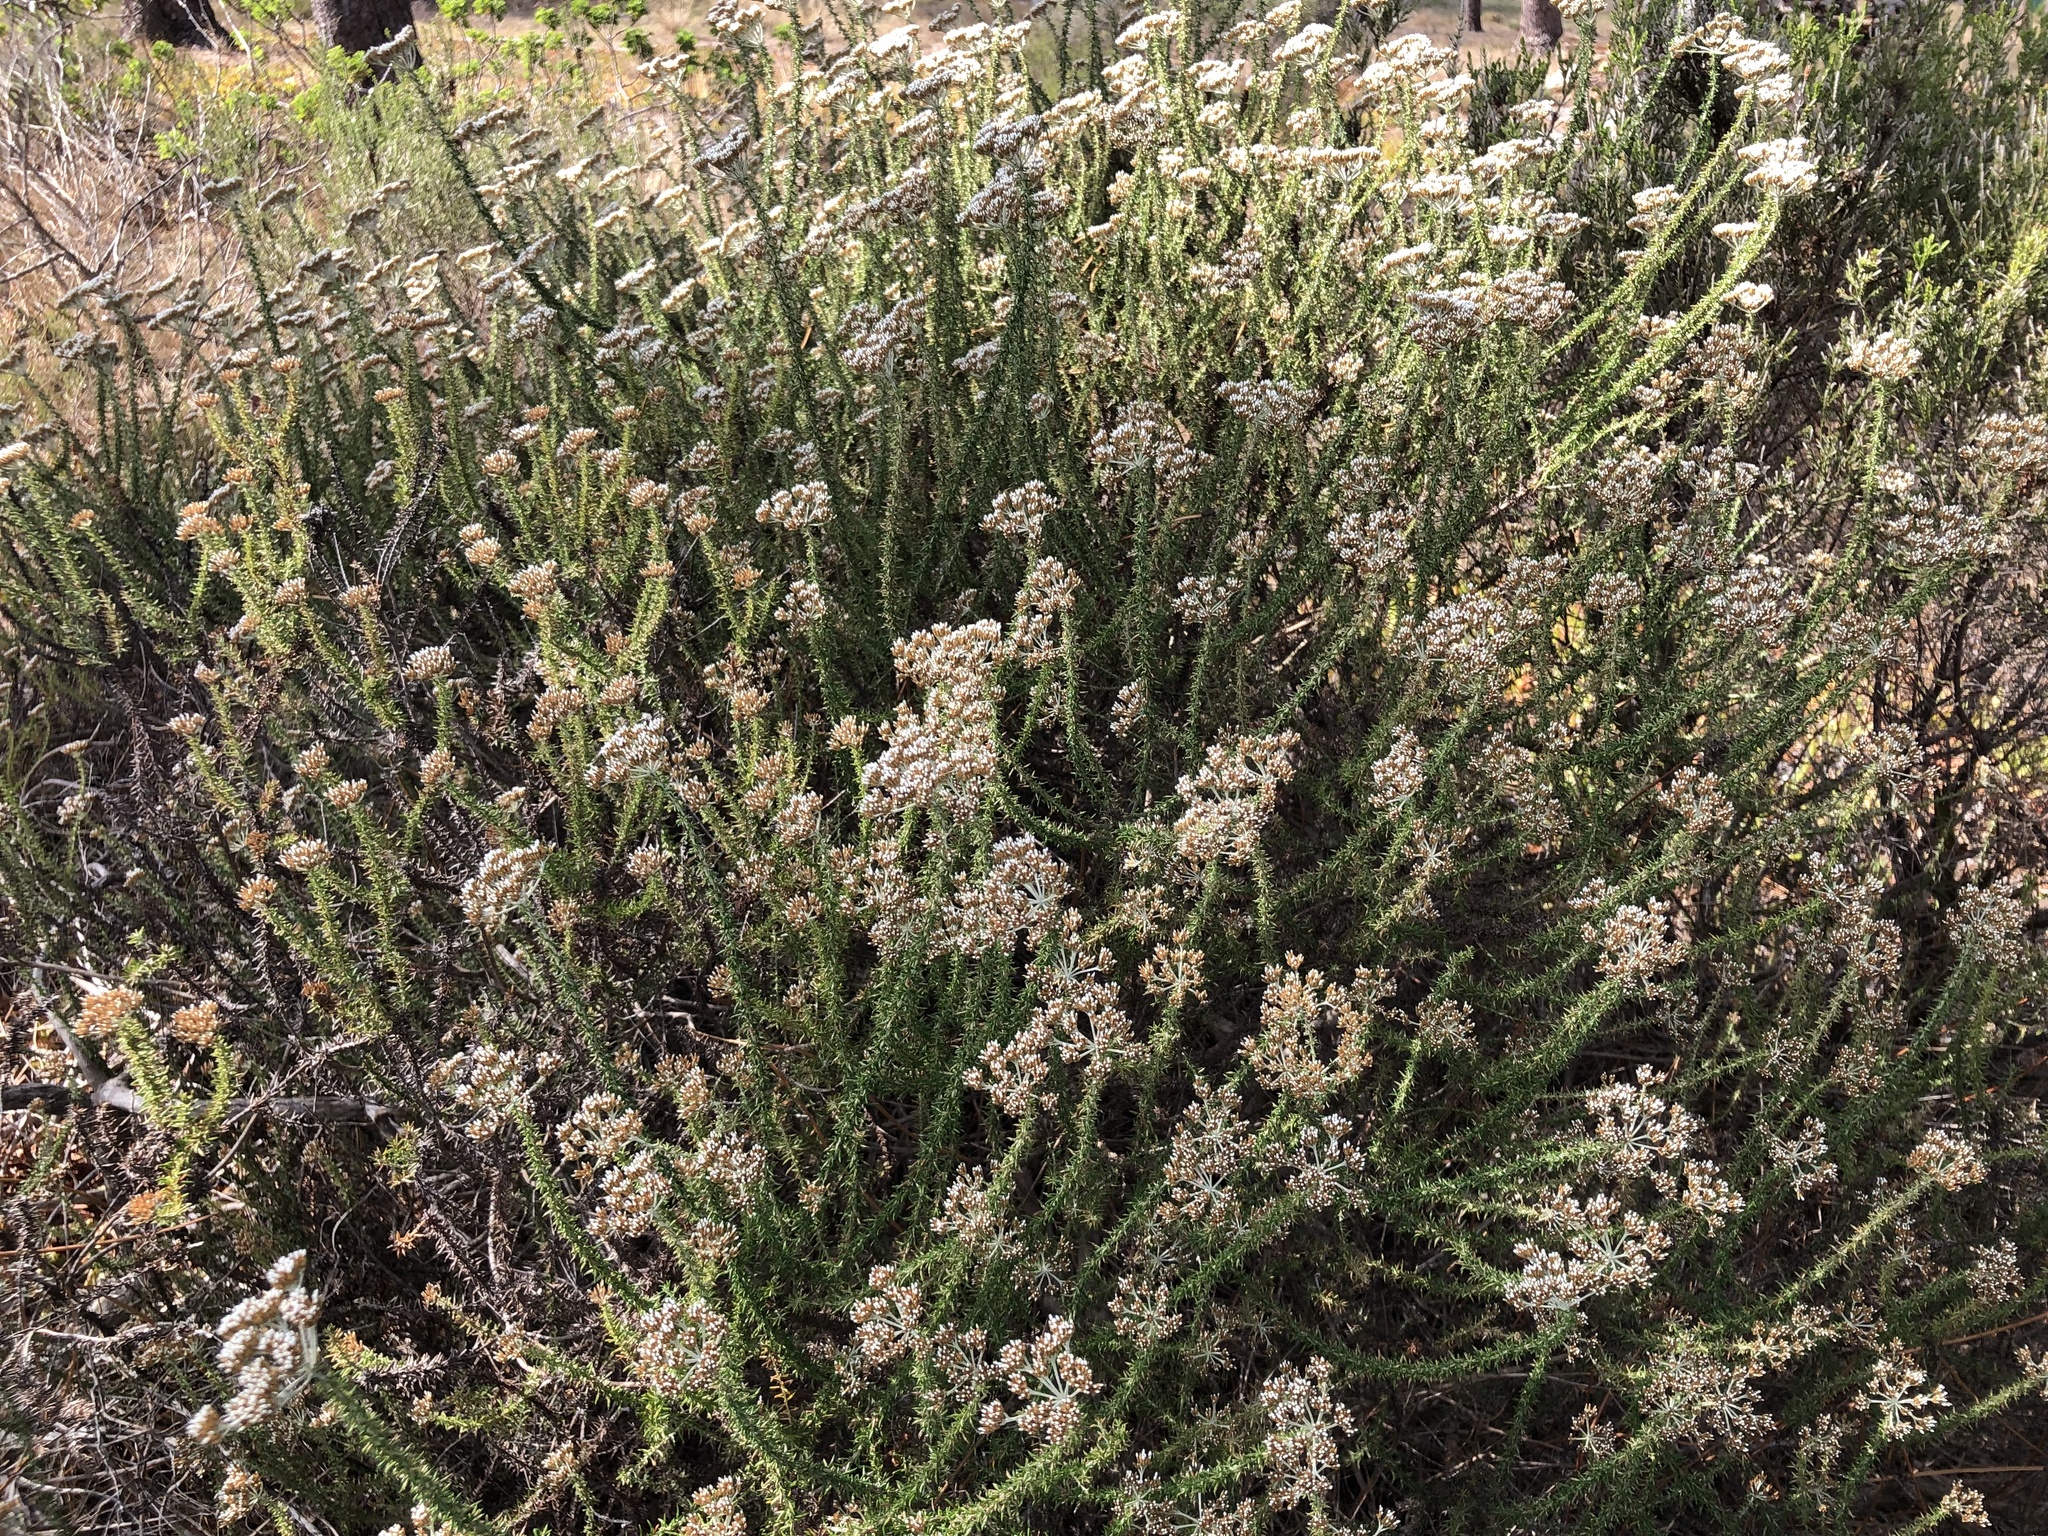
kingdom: Plantae
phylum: Tracheophyta
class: Magnoliopsida
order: Asterales
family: Asteraceae
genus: Metalasia
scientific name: Metalasia densa
